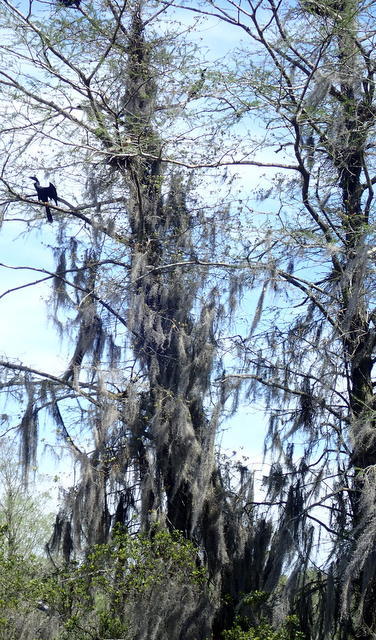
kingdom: Animalia
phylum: Chordata
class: Aves
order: Suliformes
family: Anhingidae
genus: Anhinga
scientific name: Anhinga anhinga
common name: Anhinga
